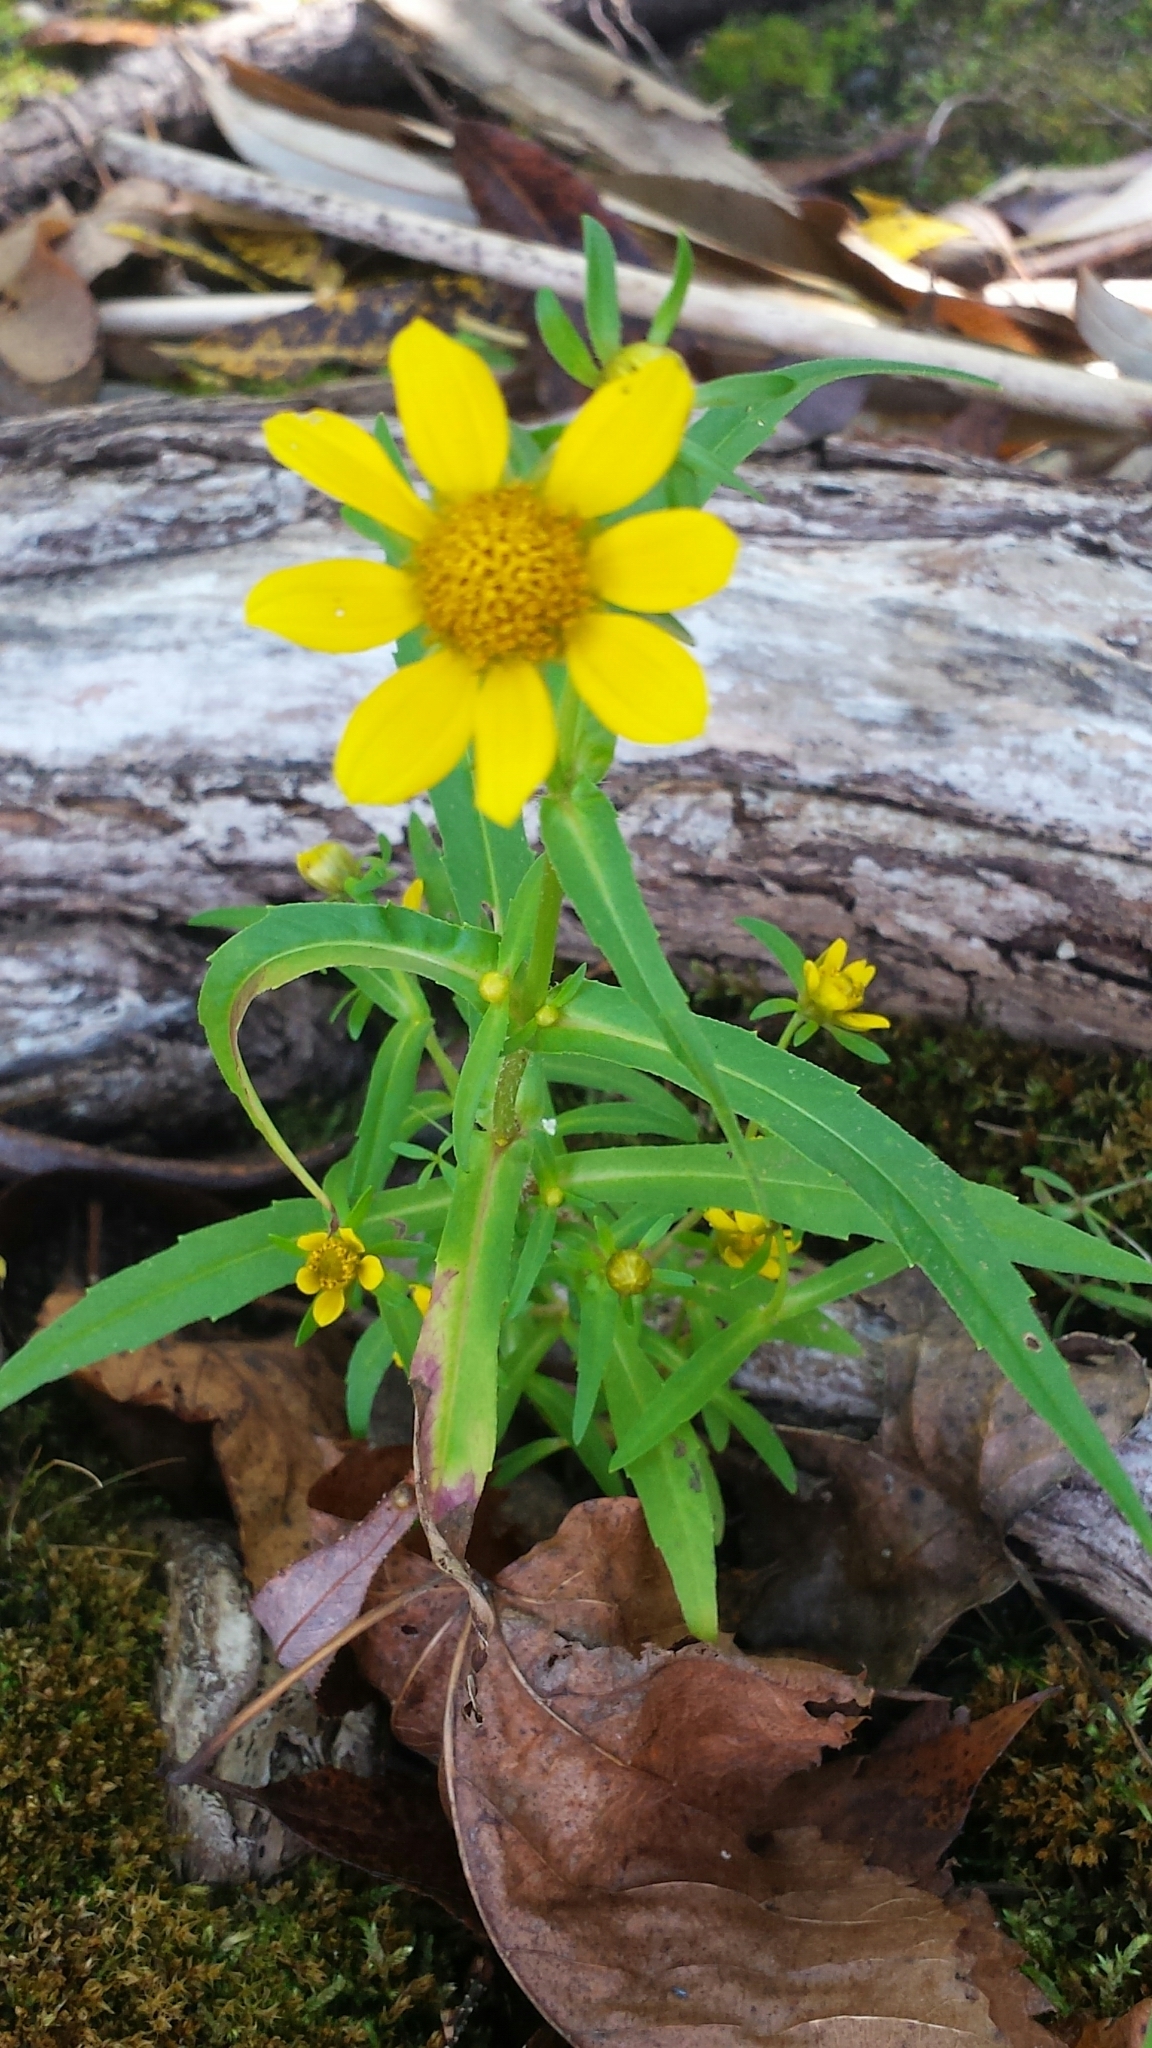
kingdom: Plantae
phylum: Tracheophyta
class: Magnoliopsida
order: Asterales
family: Asteraceae
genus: Bidens
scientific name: Bidens cernua
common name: Nodding bur-marigold
